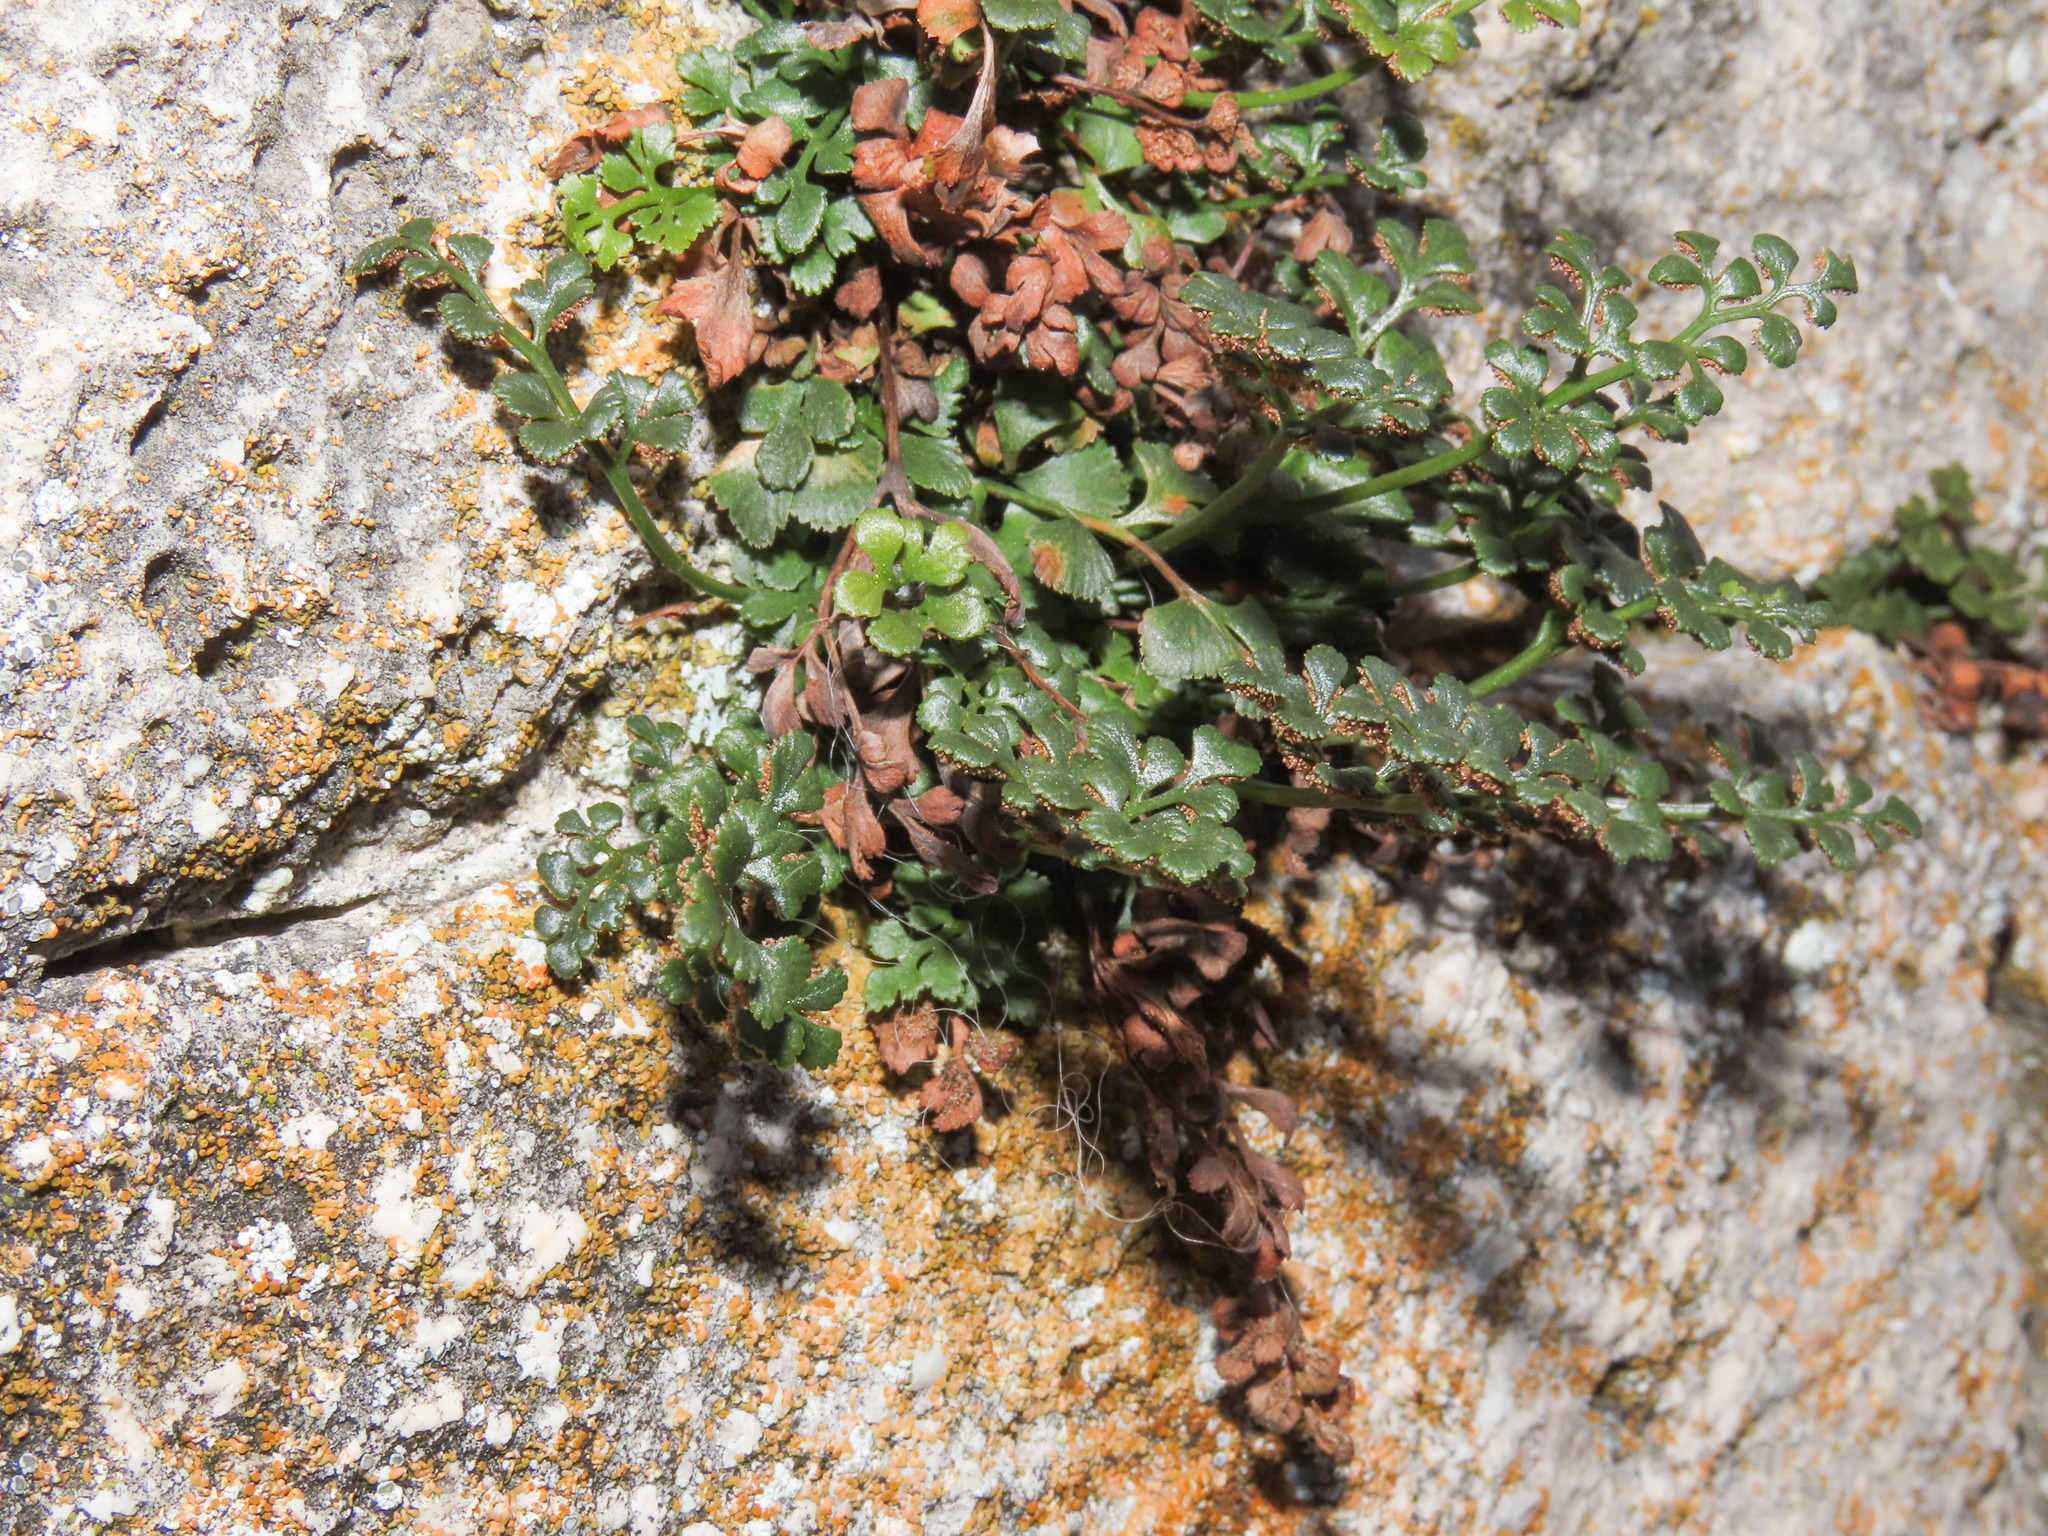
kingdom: Plantae
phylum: Tracheophyta
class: Polypodiopsida
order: Polypodiales
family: Aspleniaceae
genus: Asplenium
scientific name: Asplenium ruta-muraria
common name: Wall-rue
